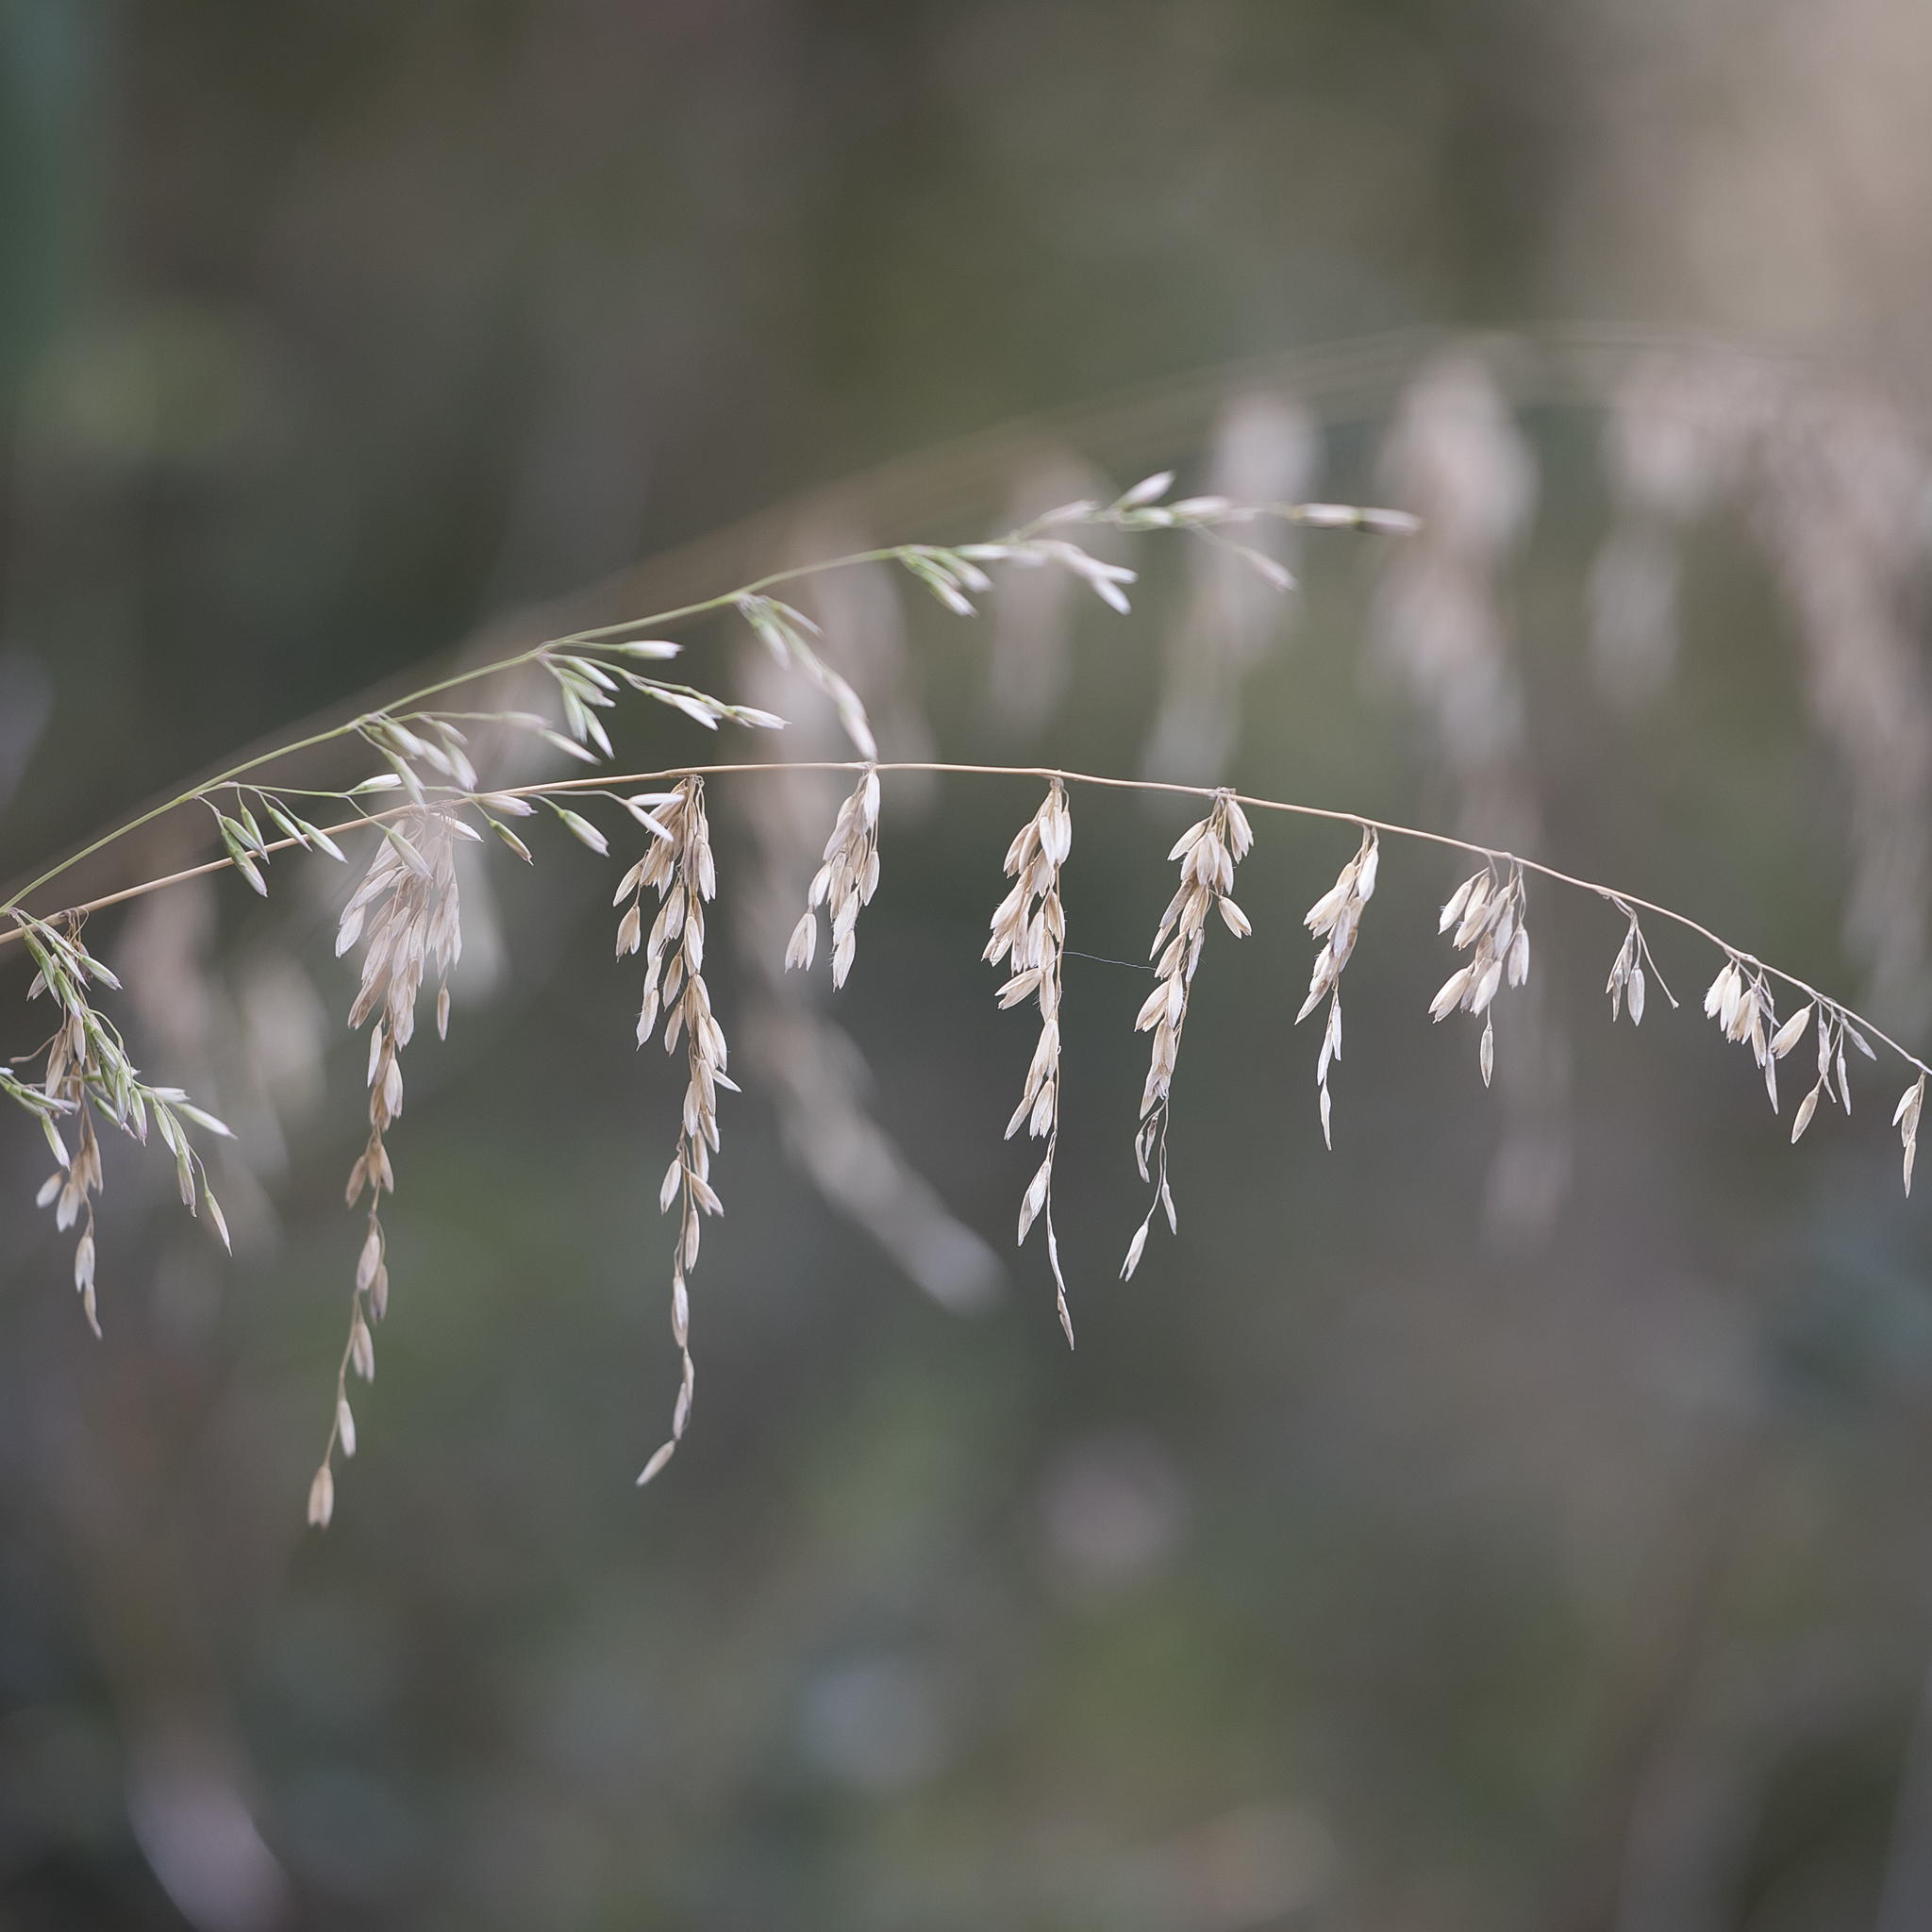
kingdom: Plantae
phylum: Tracheophyta
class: Liliopsida
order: Poales
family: Poaceae
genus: Ehrharta
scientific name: Ehrharta calycina
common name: Perennial veldtgrass
